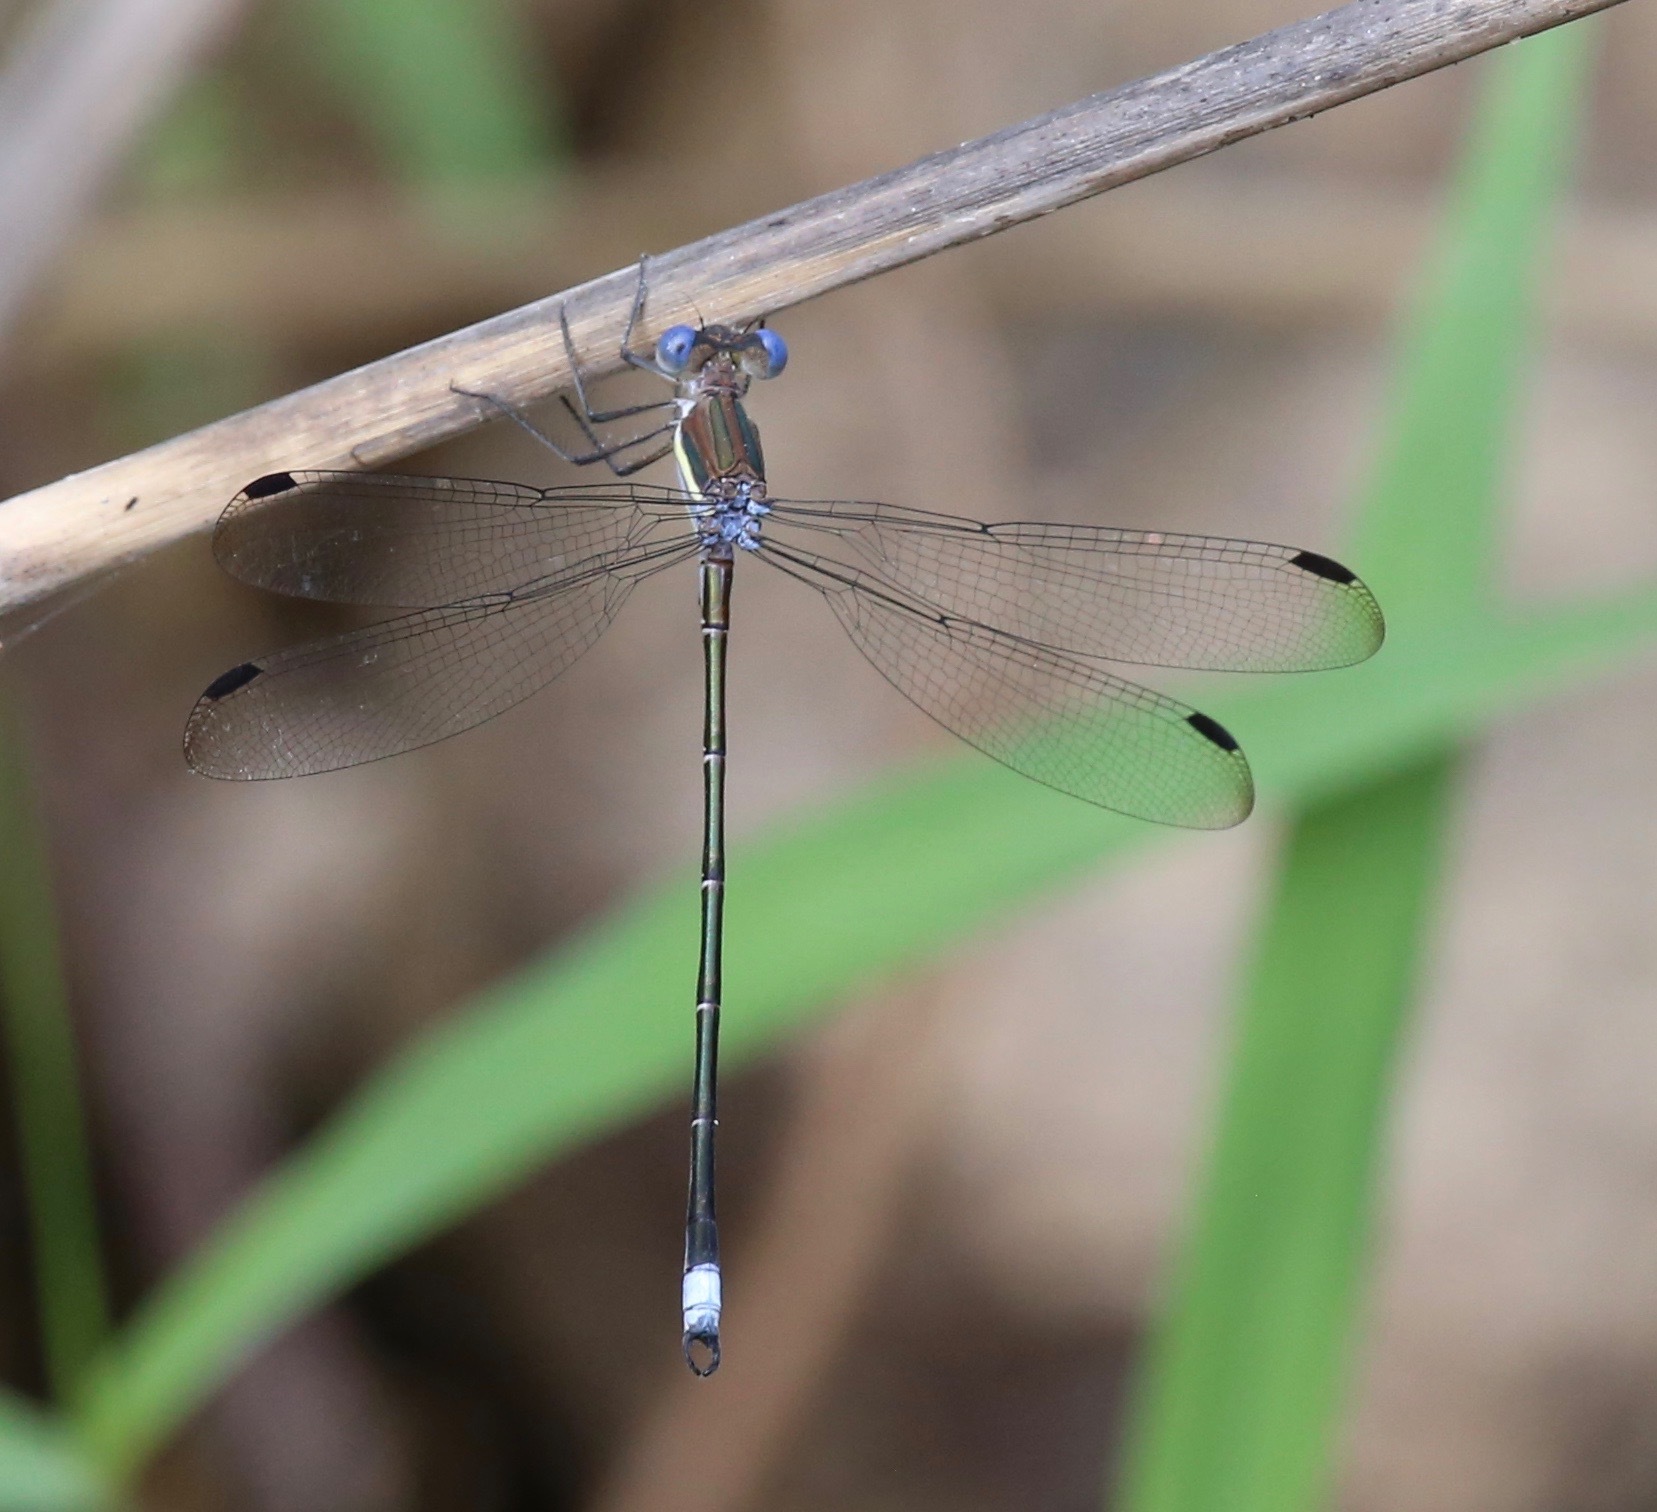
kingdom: Animalia
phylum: Arthropoda
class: Insecta
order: Odonata
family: Lestidae
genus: Archilestes
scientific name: Archilestes grandis
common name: Great spreadwing
